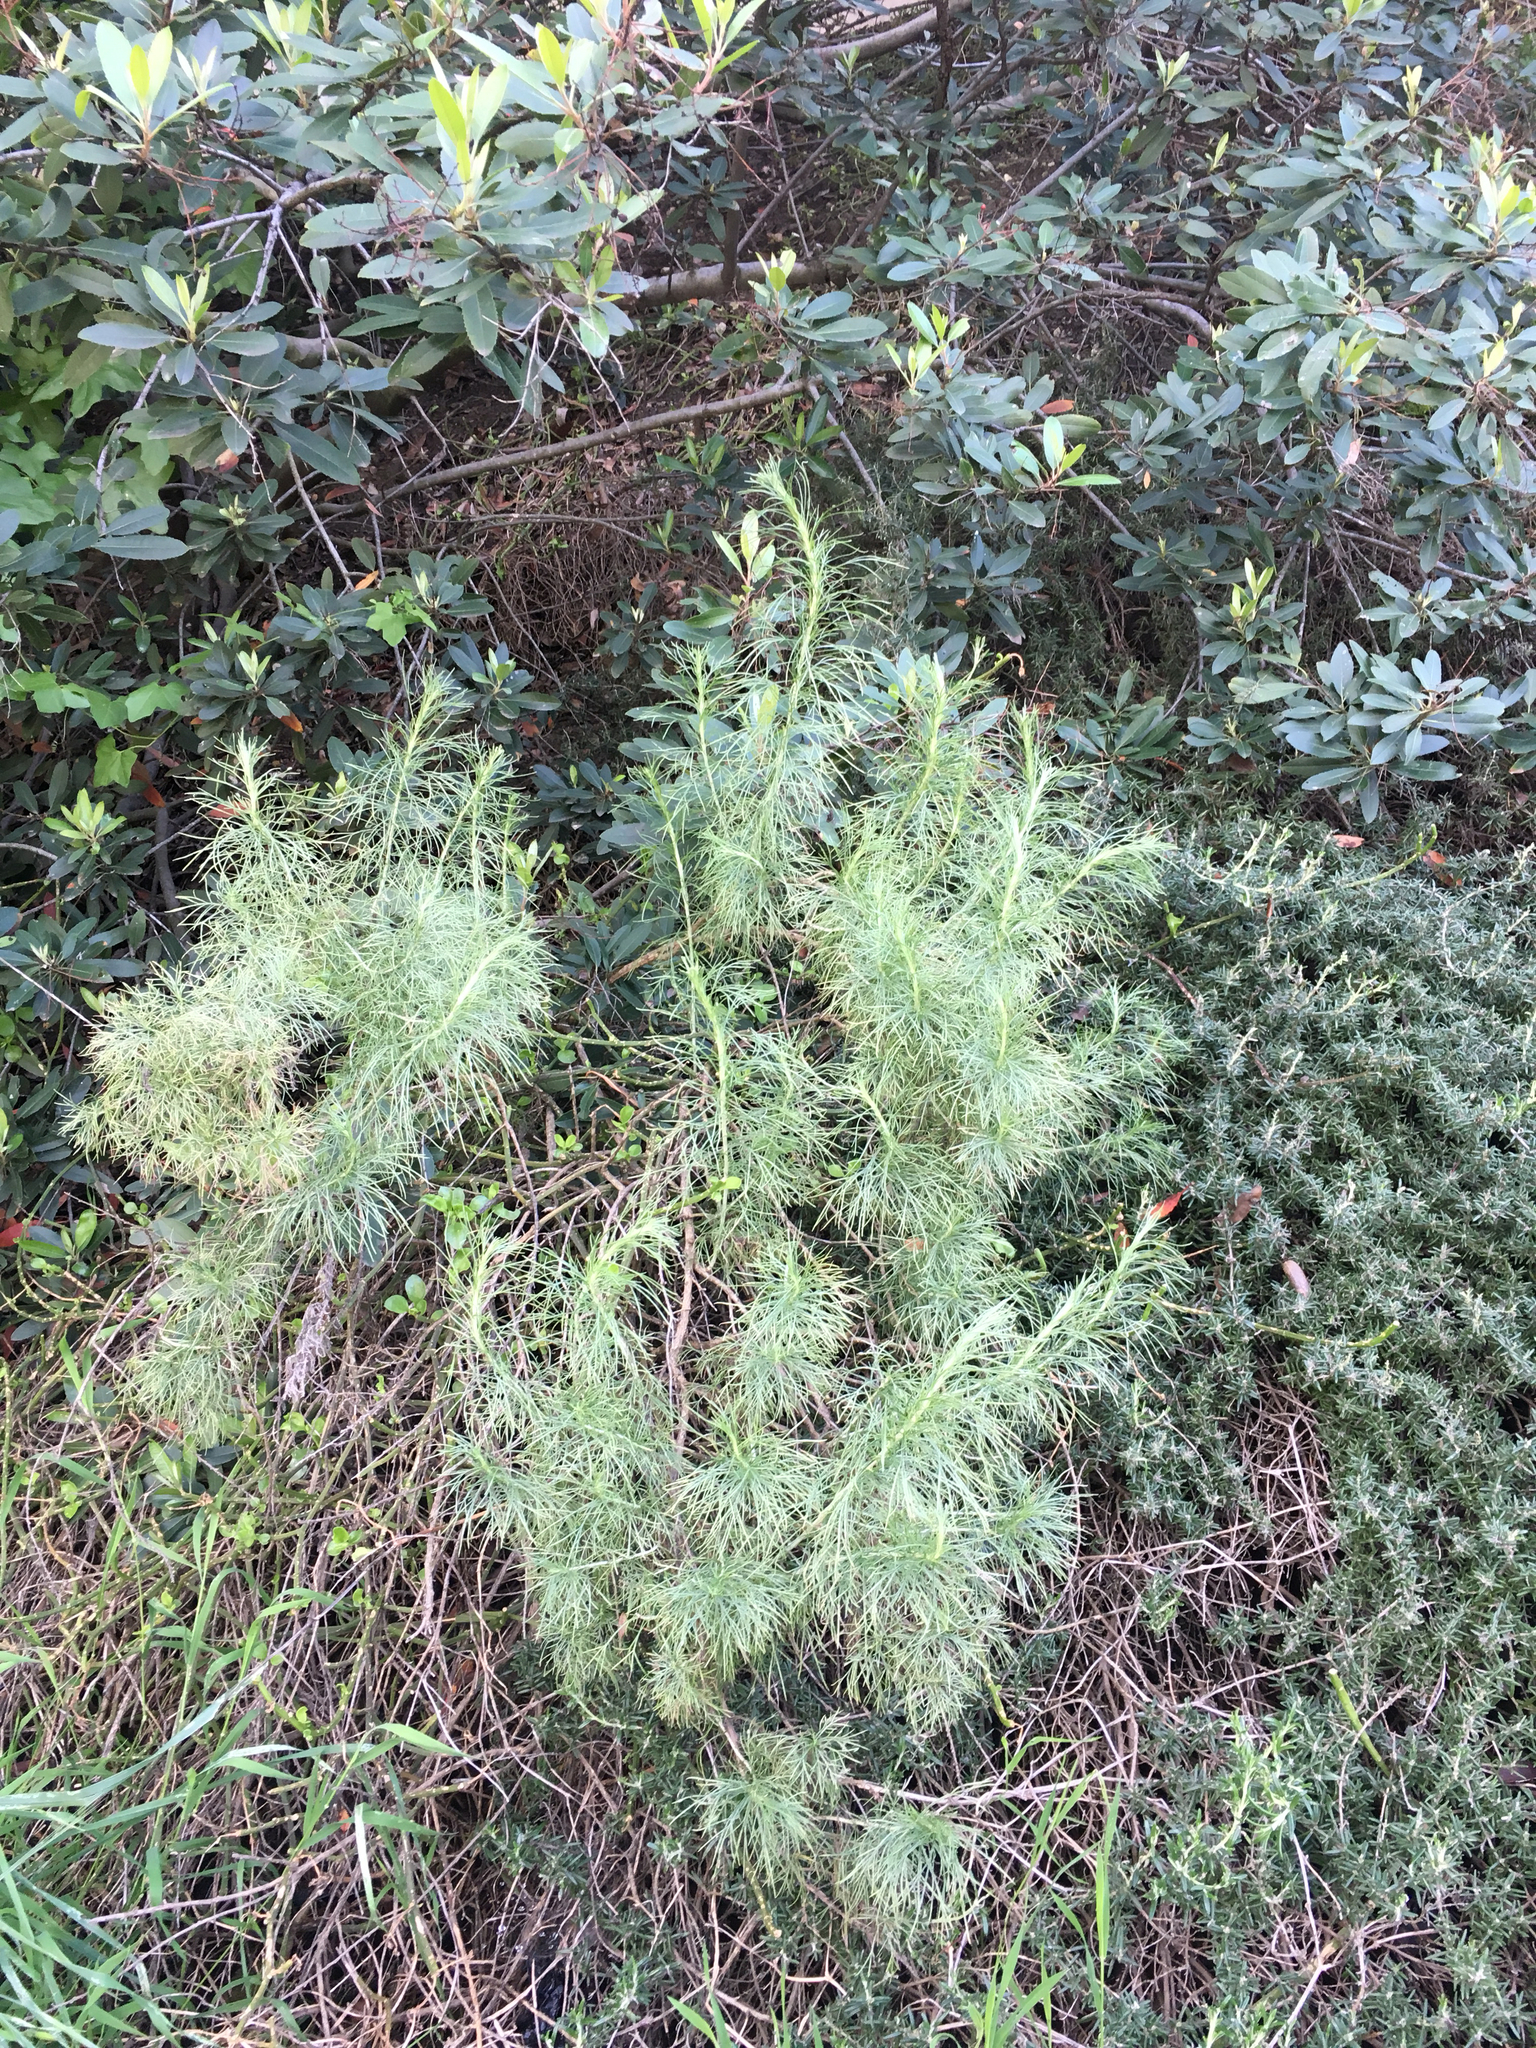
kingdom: Plantae
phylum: Tracheophyta
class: Magnoliopsida
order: Asterales
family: Asteraceae
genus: Artemisia
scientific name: Artemisia californica
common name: California sagebrush
